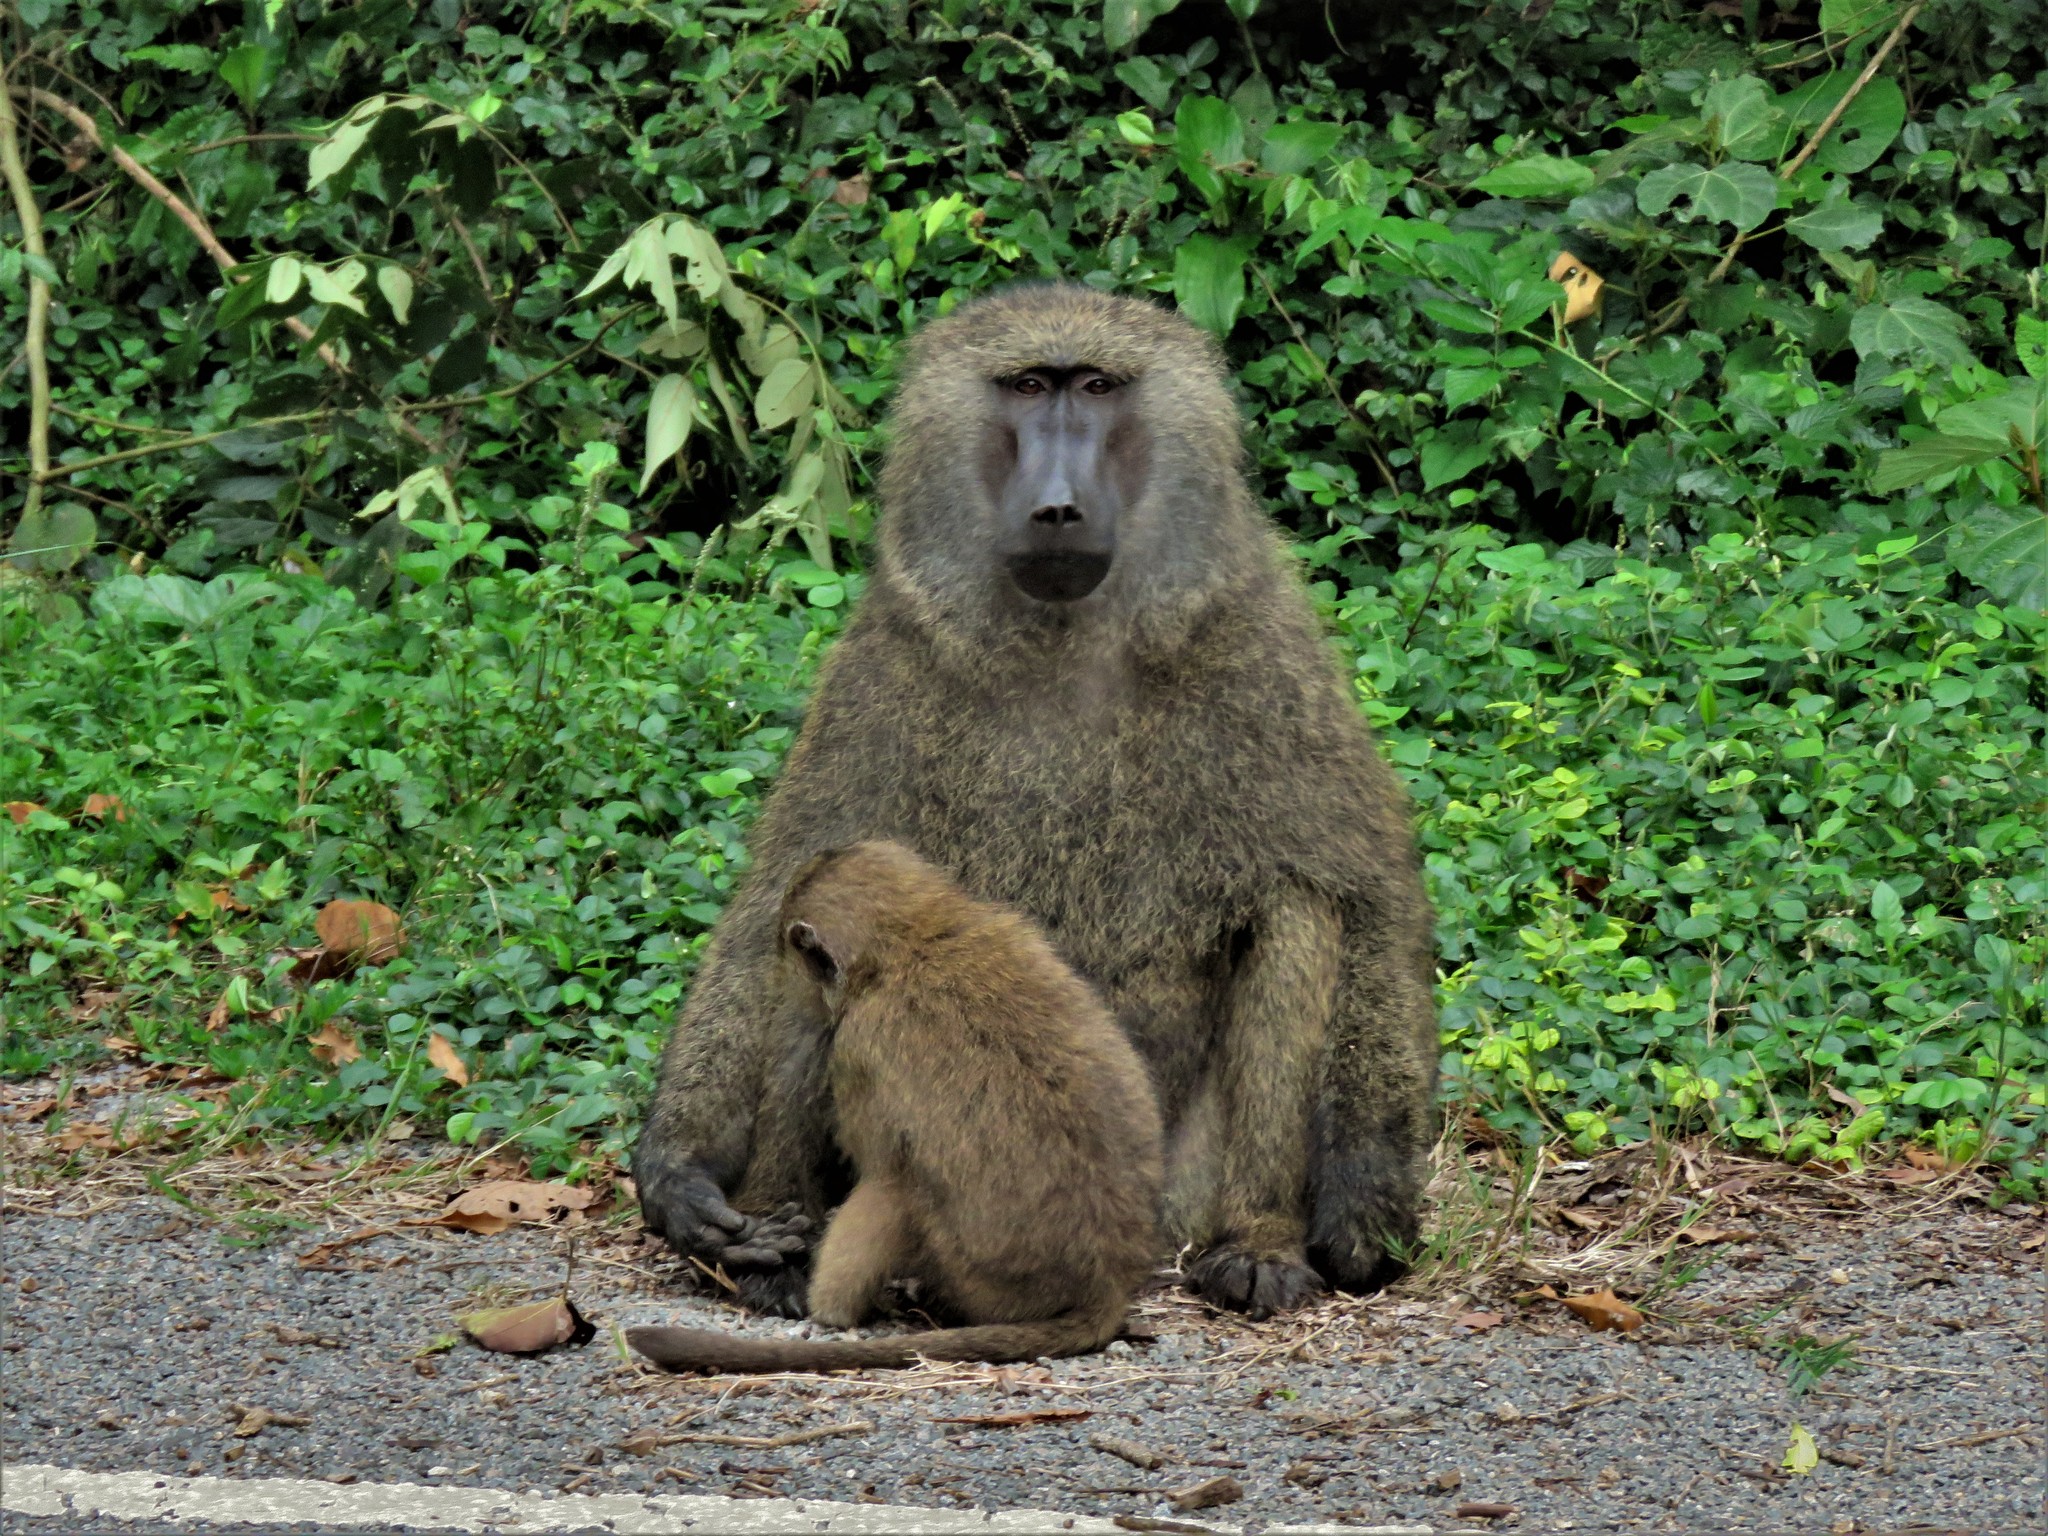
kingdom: Animalia
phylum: Chordata
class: Mammalia
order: Primates
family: Cercopithecidae
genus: Papio
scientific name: Papio anubis
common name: Olive baboon
